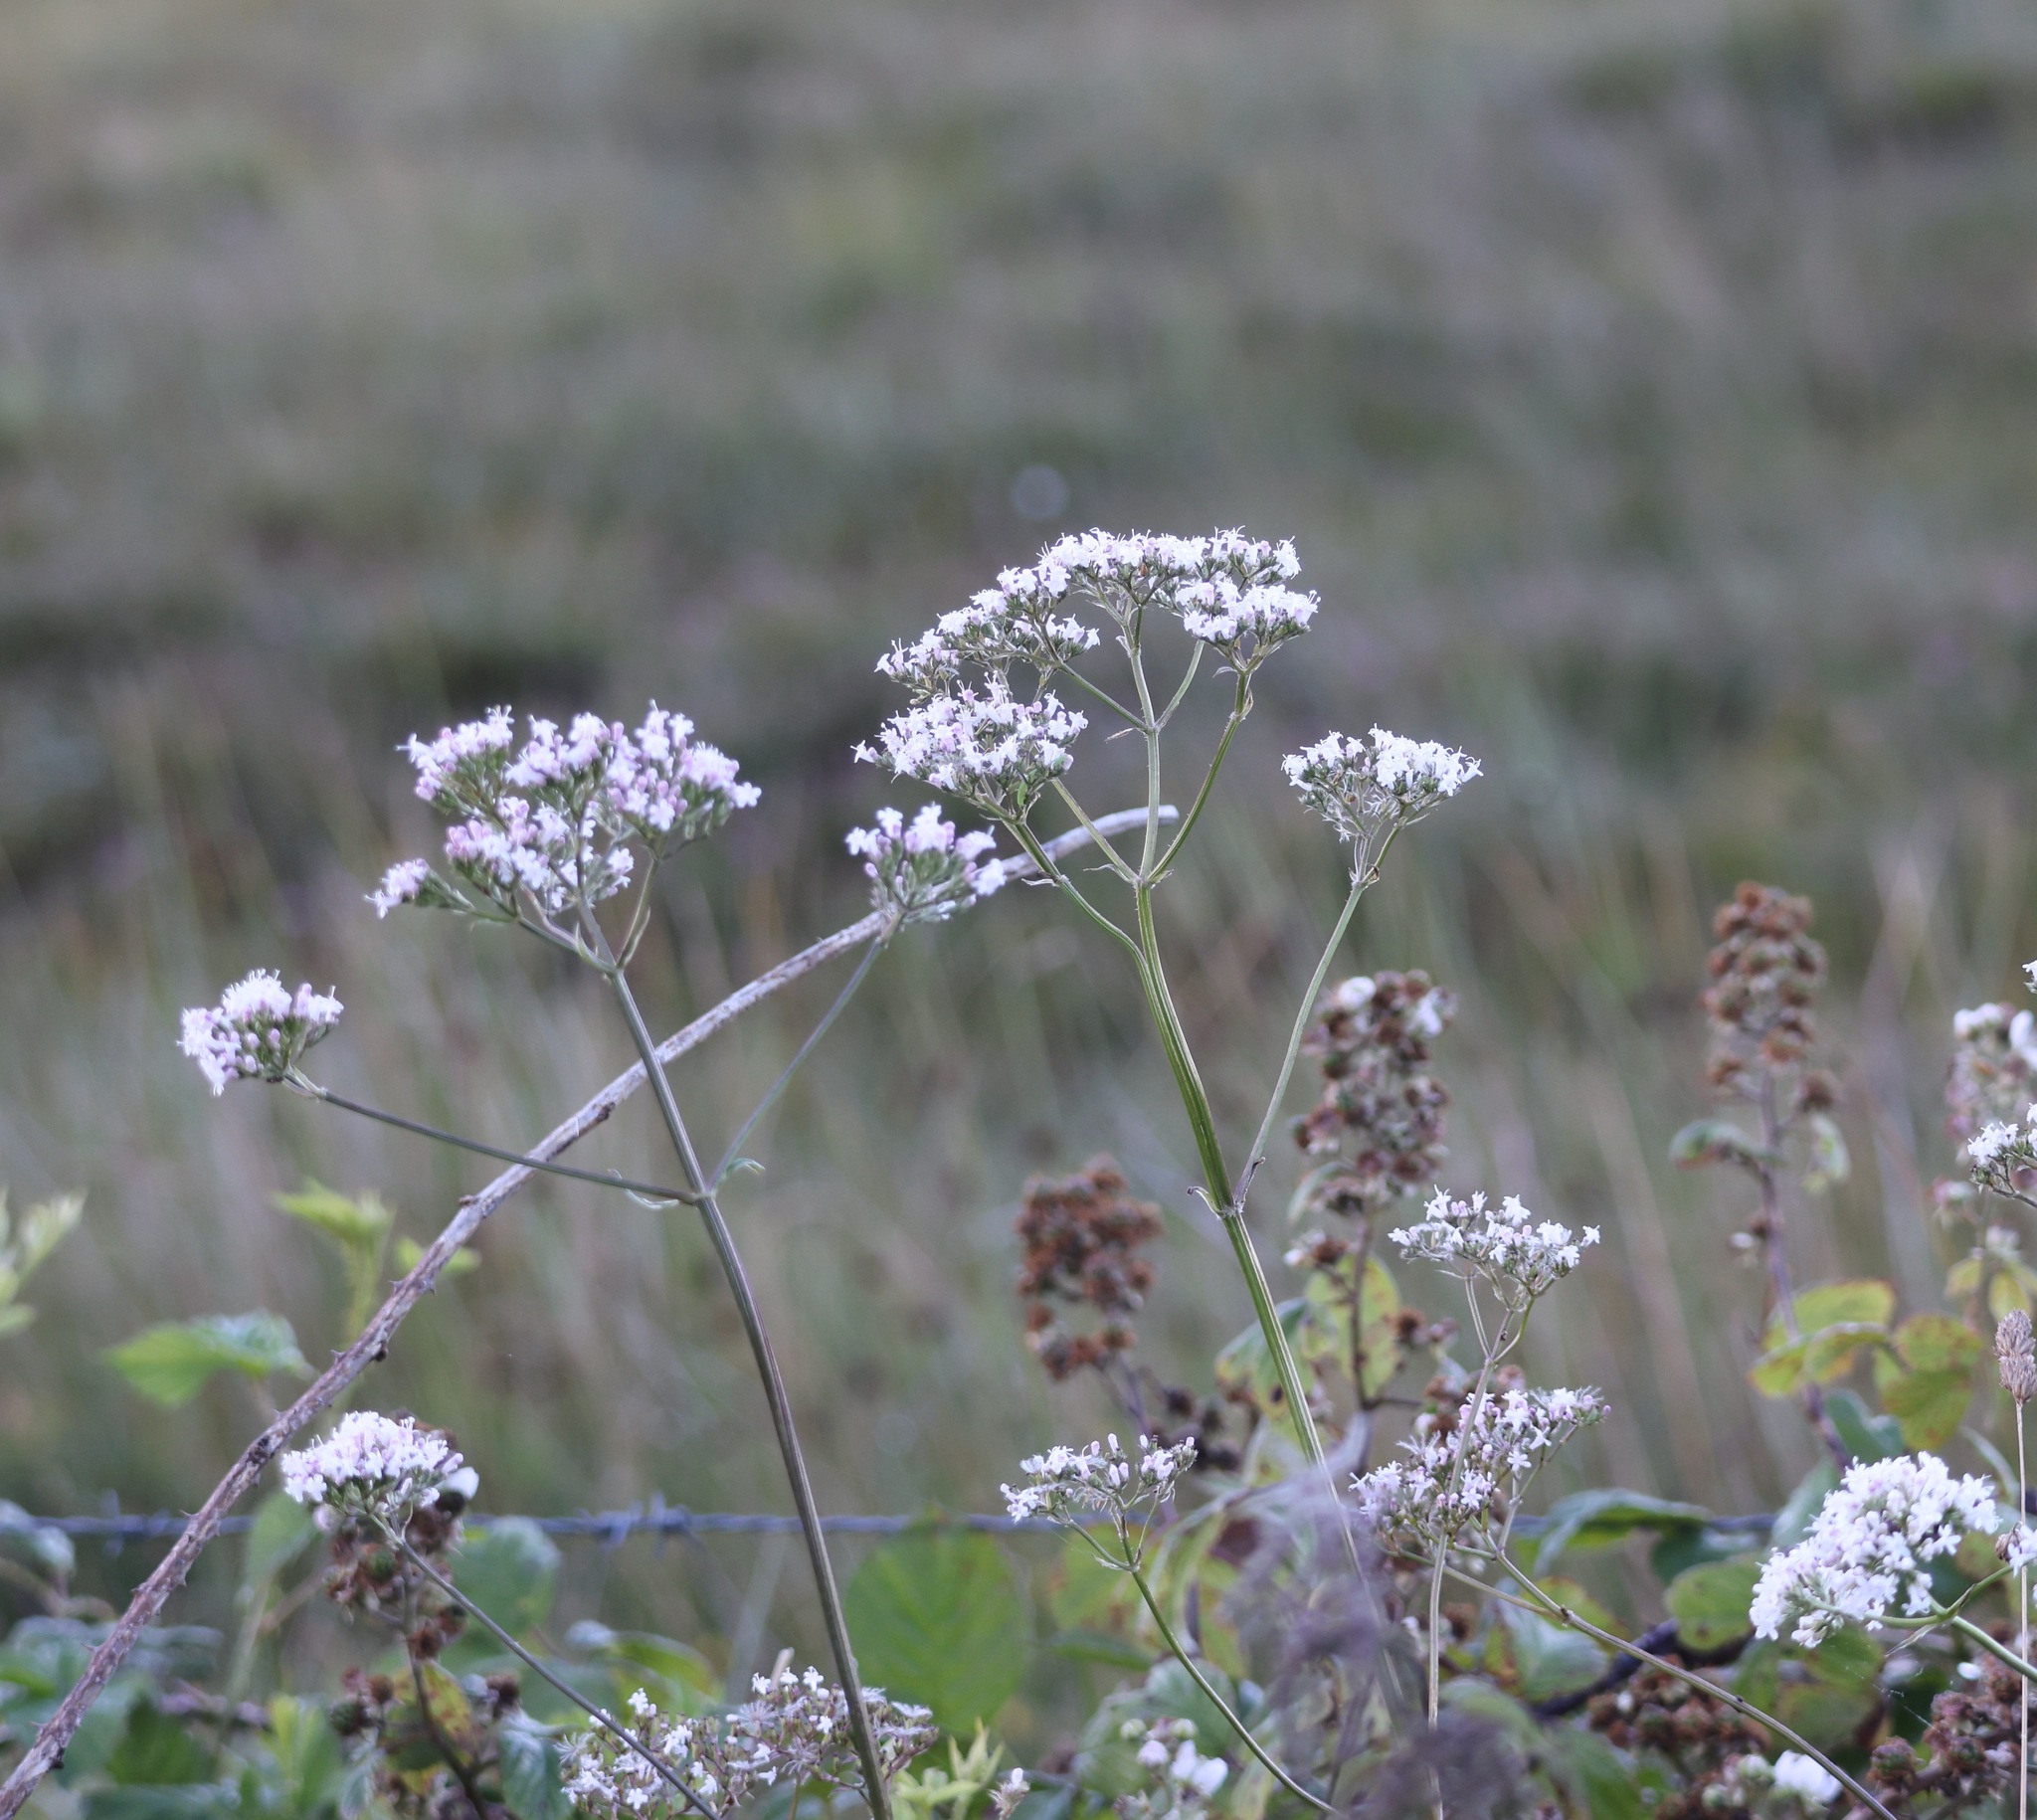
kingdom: Plantae
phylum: Tracheophyta
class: Magnoliopsida
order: Dipsacales
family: Caprifoliaceae
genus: Valeriana
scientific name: Valeriana officinalis
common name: Common valerian
